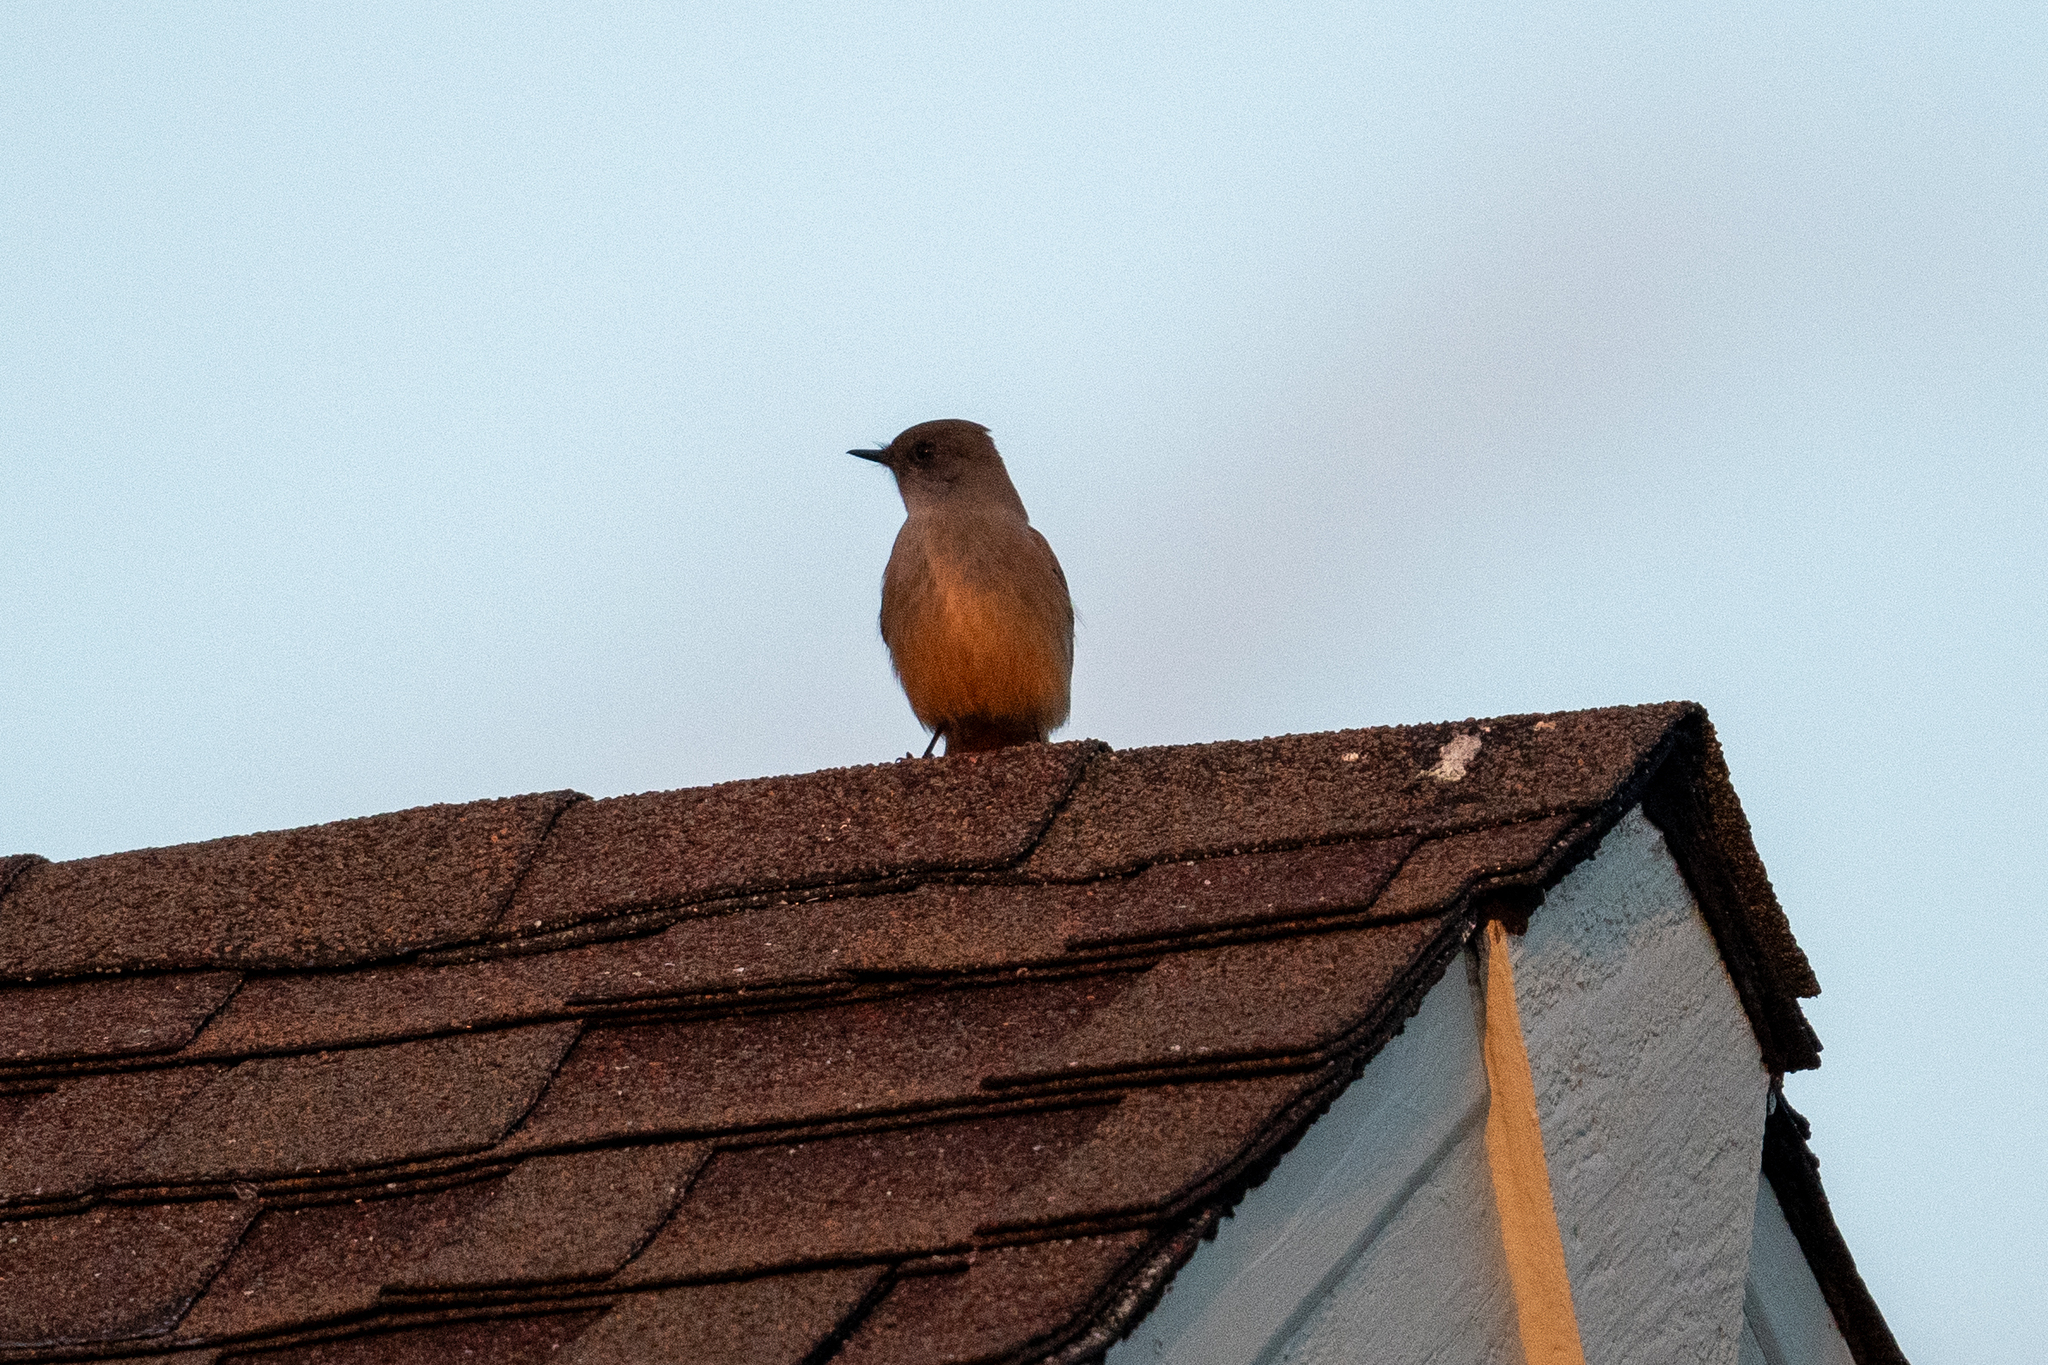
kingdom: Animalia
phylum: Chordata
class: Aves
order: Passeriformes
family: Tyrannidae
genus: Sayornis
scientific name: Sayornis saya
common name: Say's phoebe
